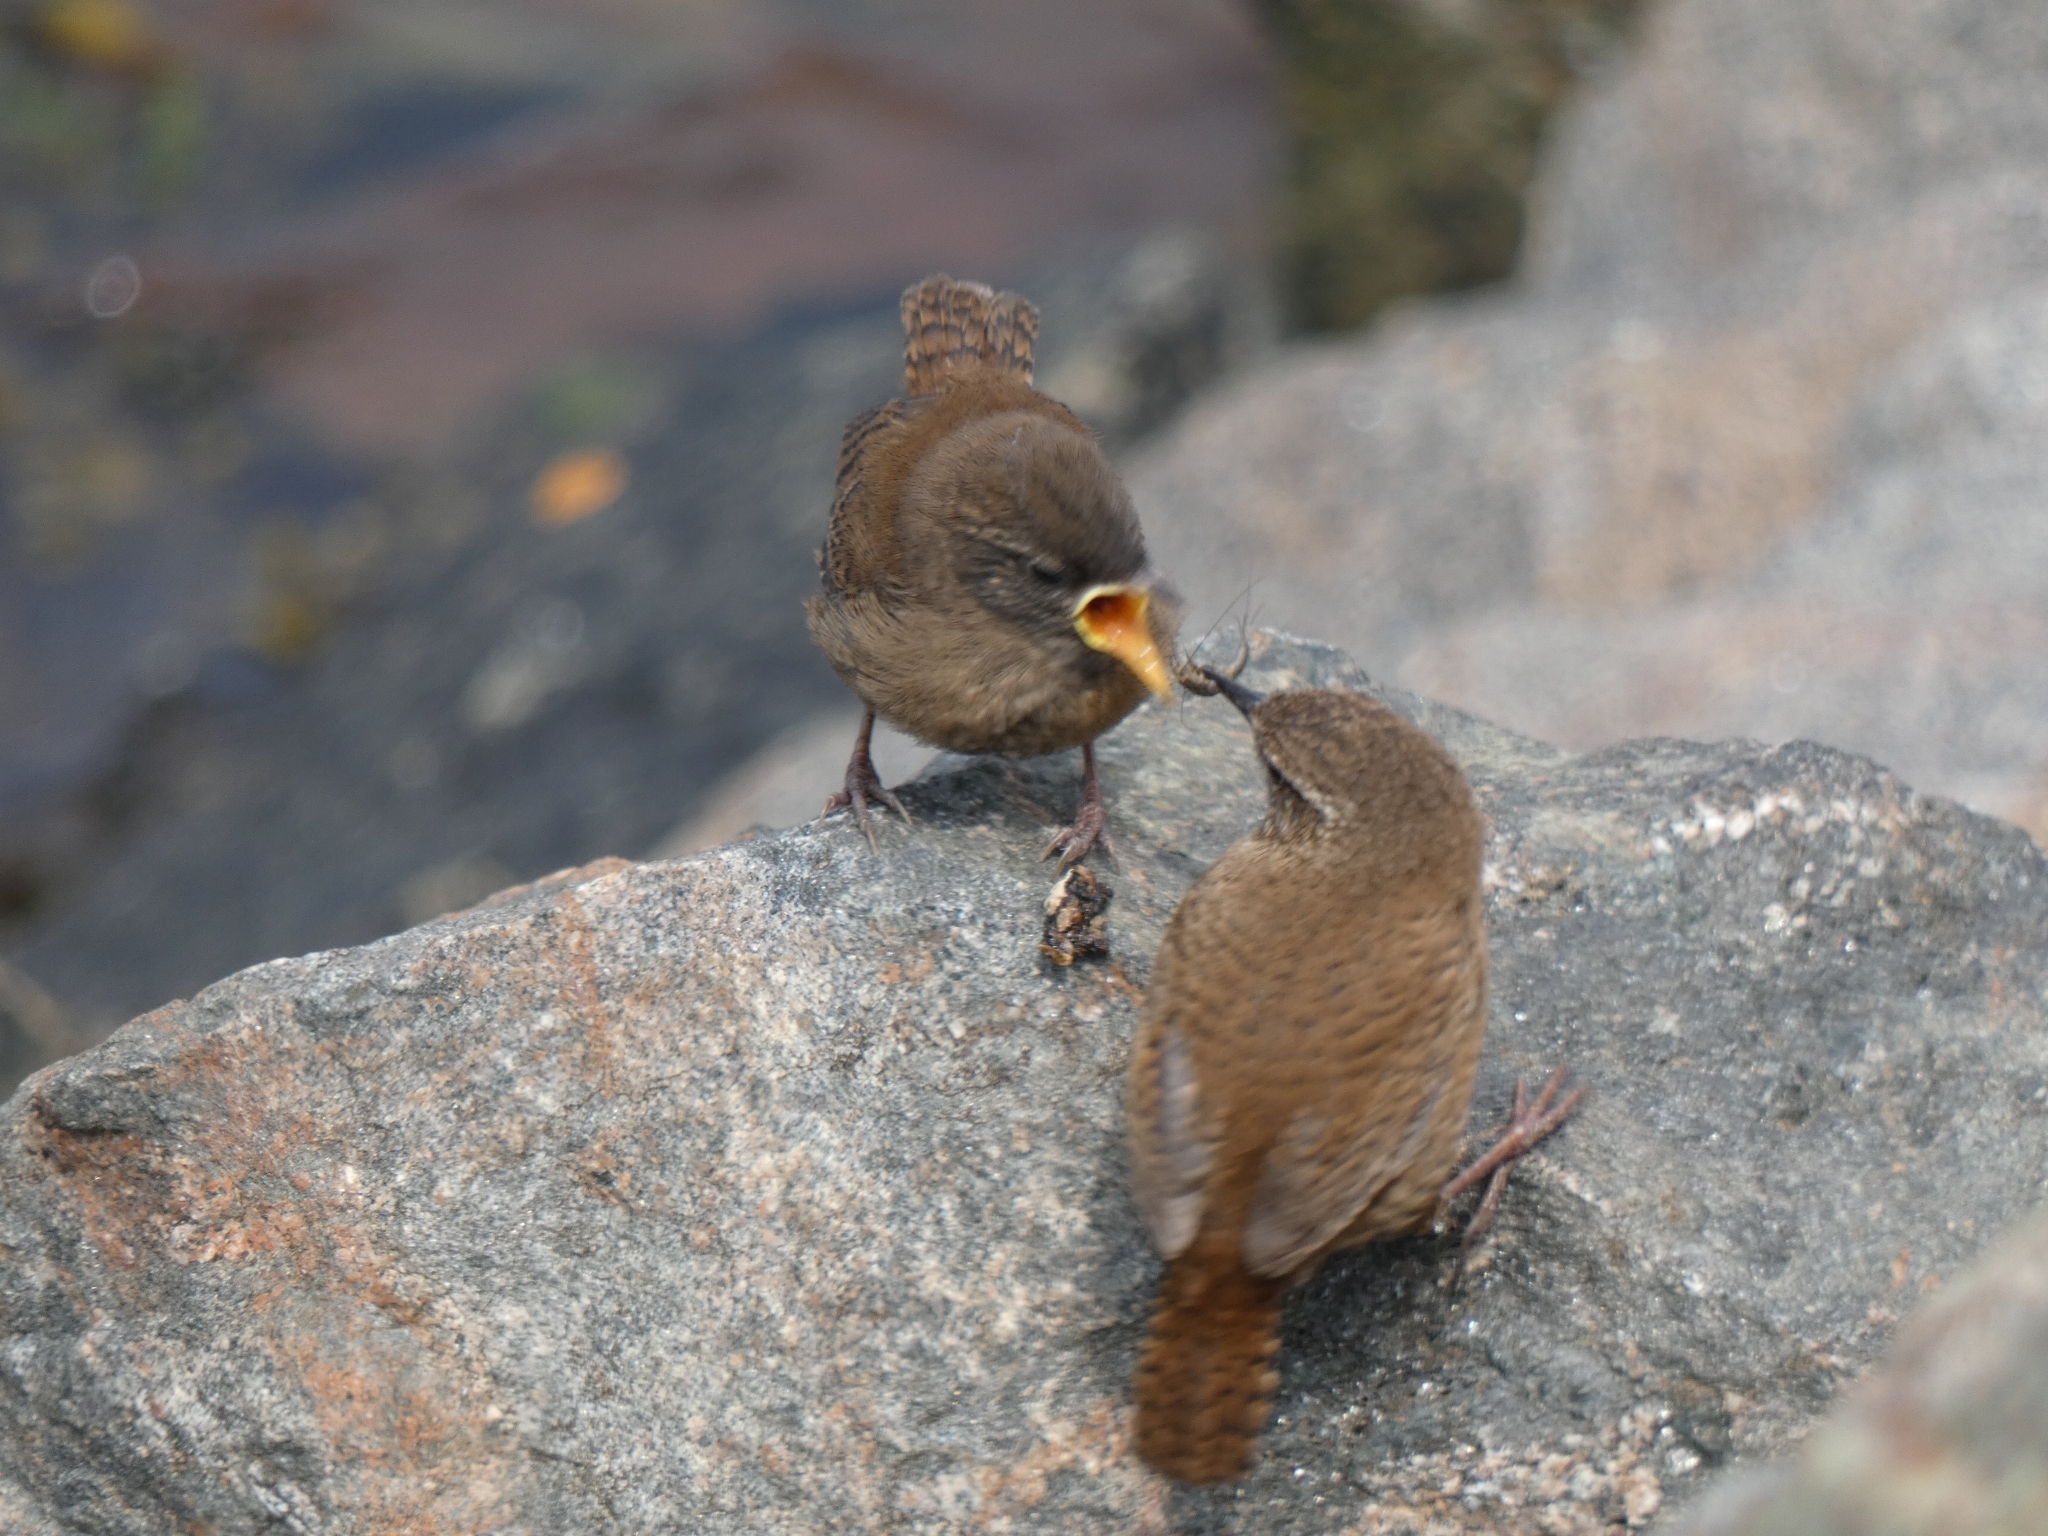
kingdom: Animalia
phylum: Chordata
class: Aves
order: Passeriformes
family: Troglodytidae
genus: Troglodytes
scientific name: Troglodytes troglodytes
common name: Eurasian wren
